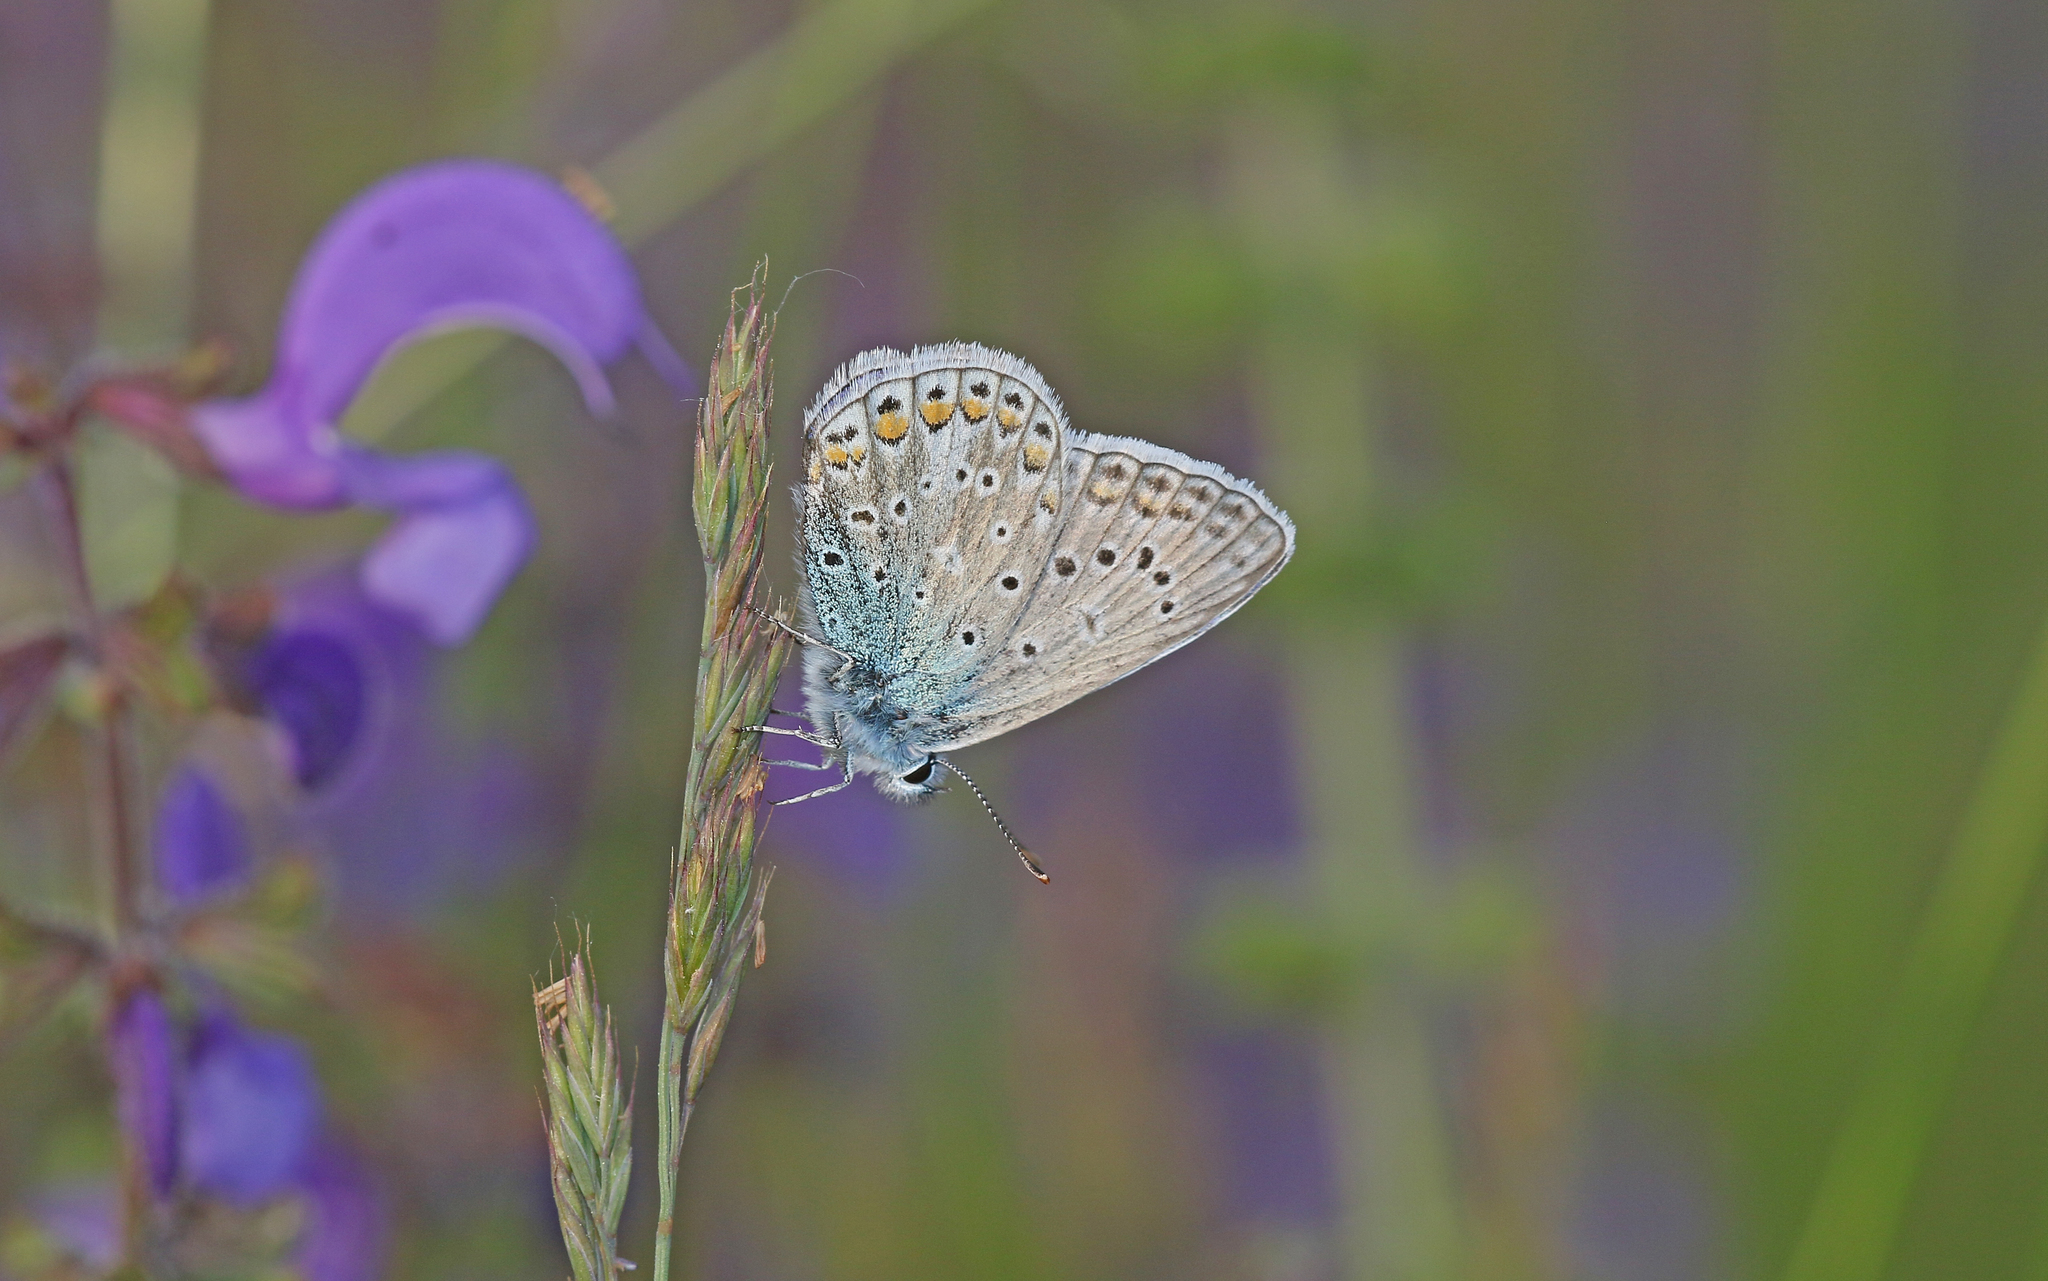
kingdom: Animalia
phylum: Arthropoda
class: Insecta
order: Lepidoptera
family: Lycaenidae
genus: Polyommatus
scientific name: Polyommatus icarus
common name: Common blue
